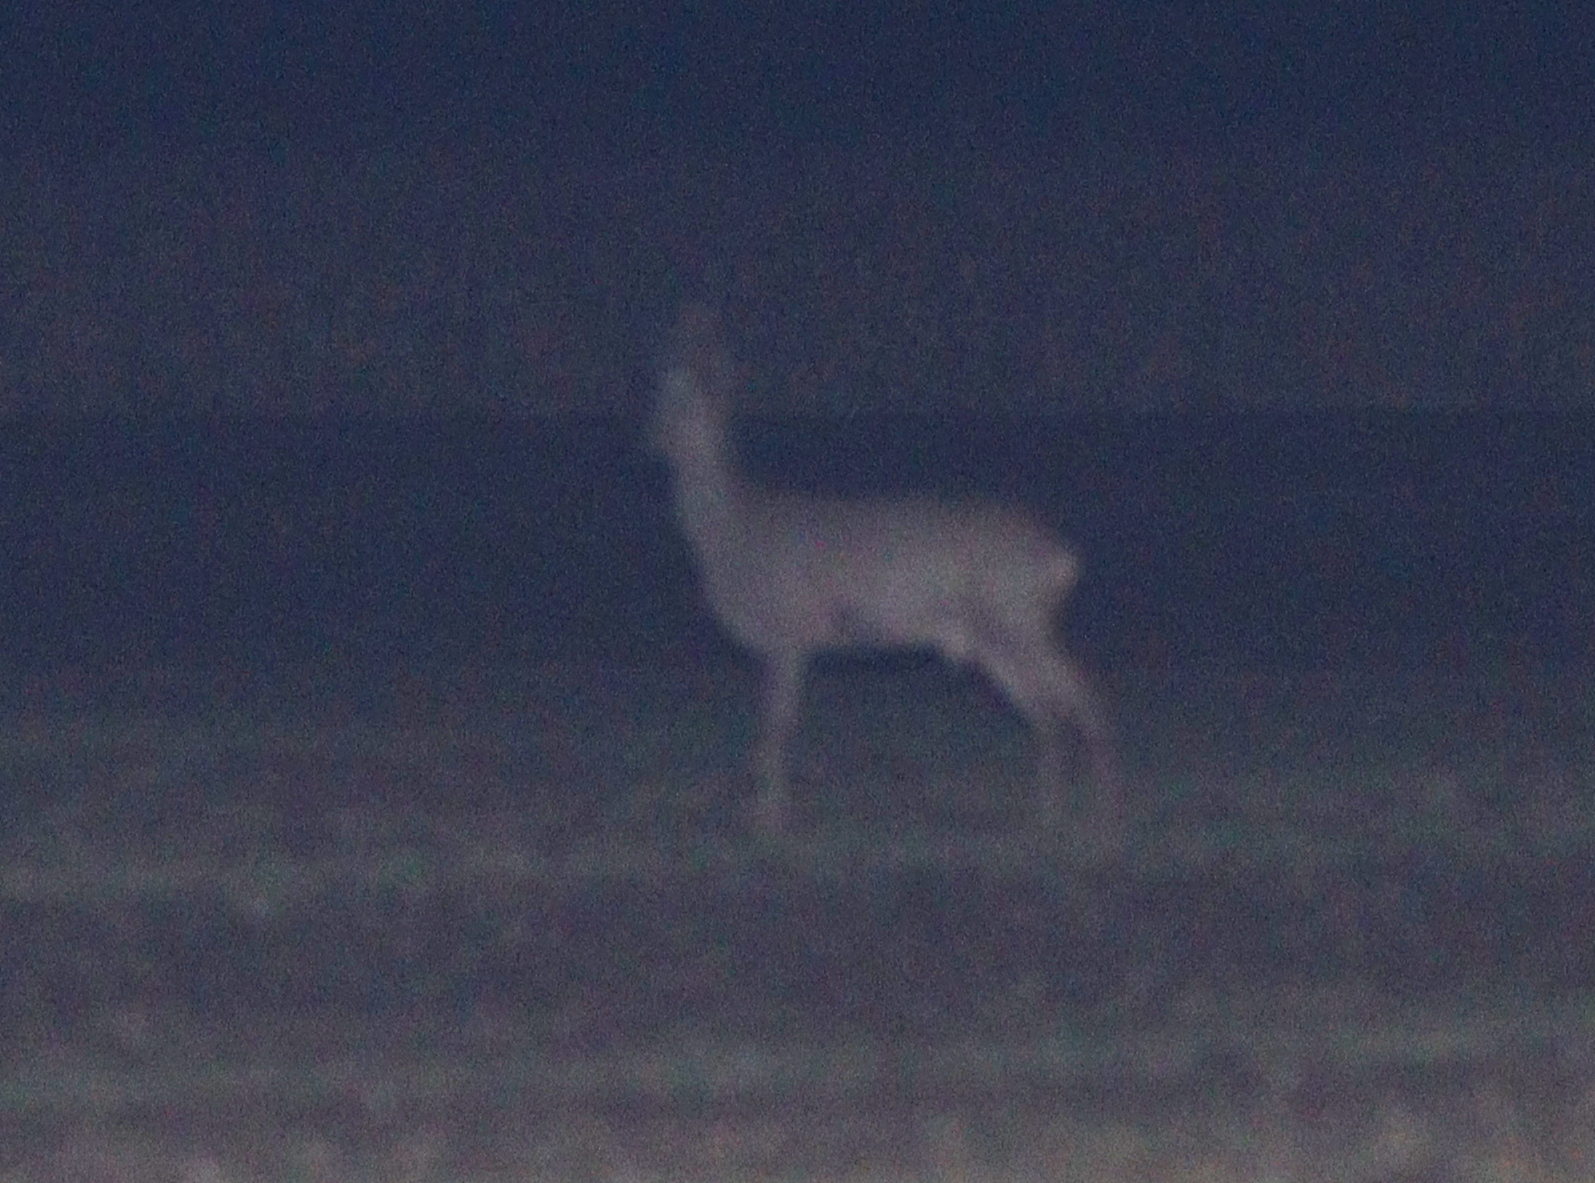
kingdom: Animalia
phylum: Chordata
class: Mammalia
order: Artiodactyla
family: Cervidae
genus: Capreolus
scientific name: Capreolus capreolus
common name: Western roe deer
